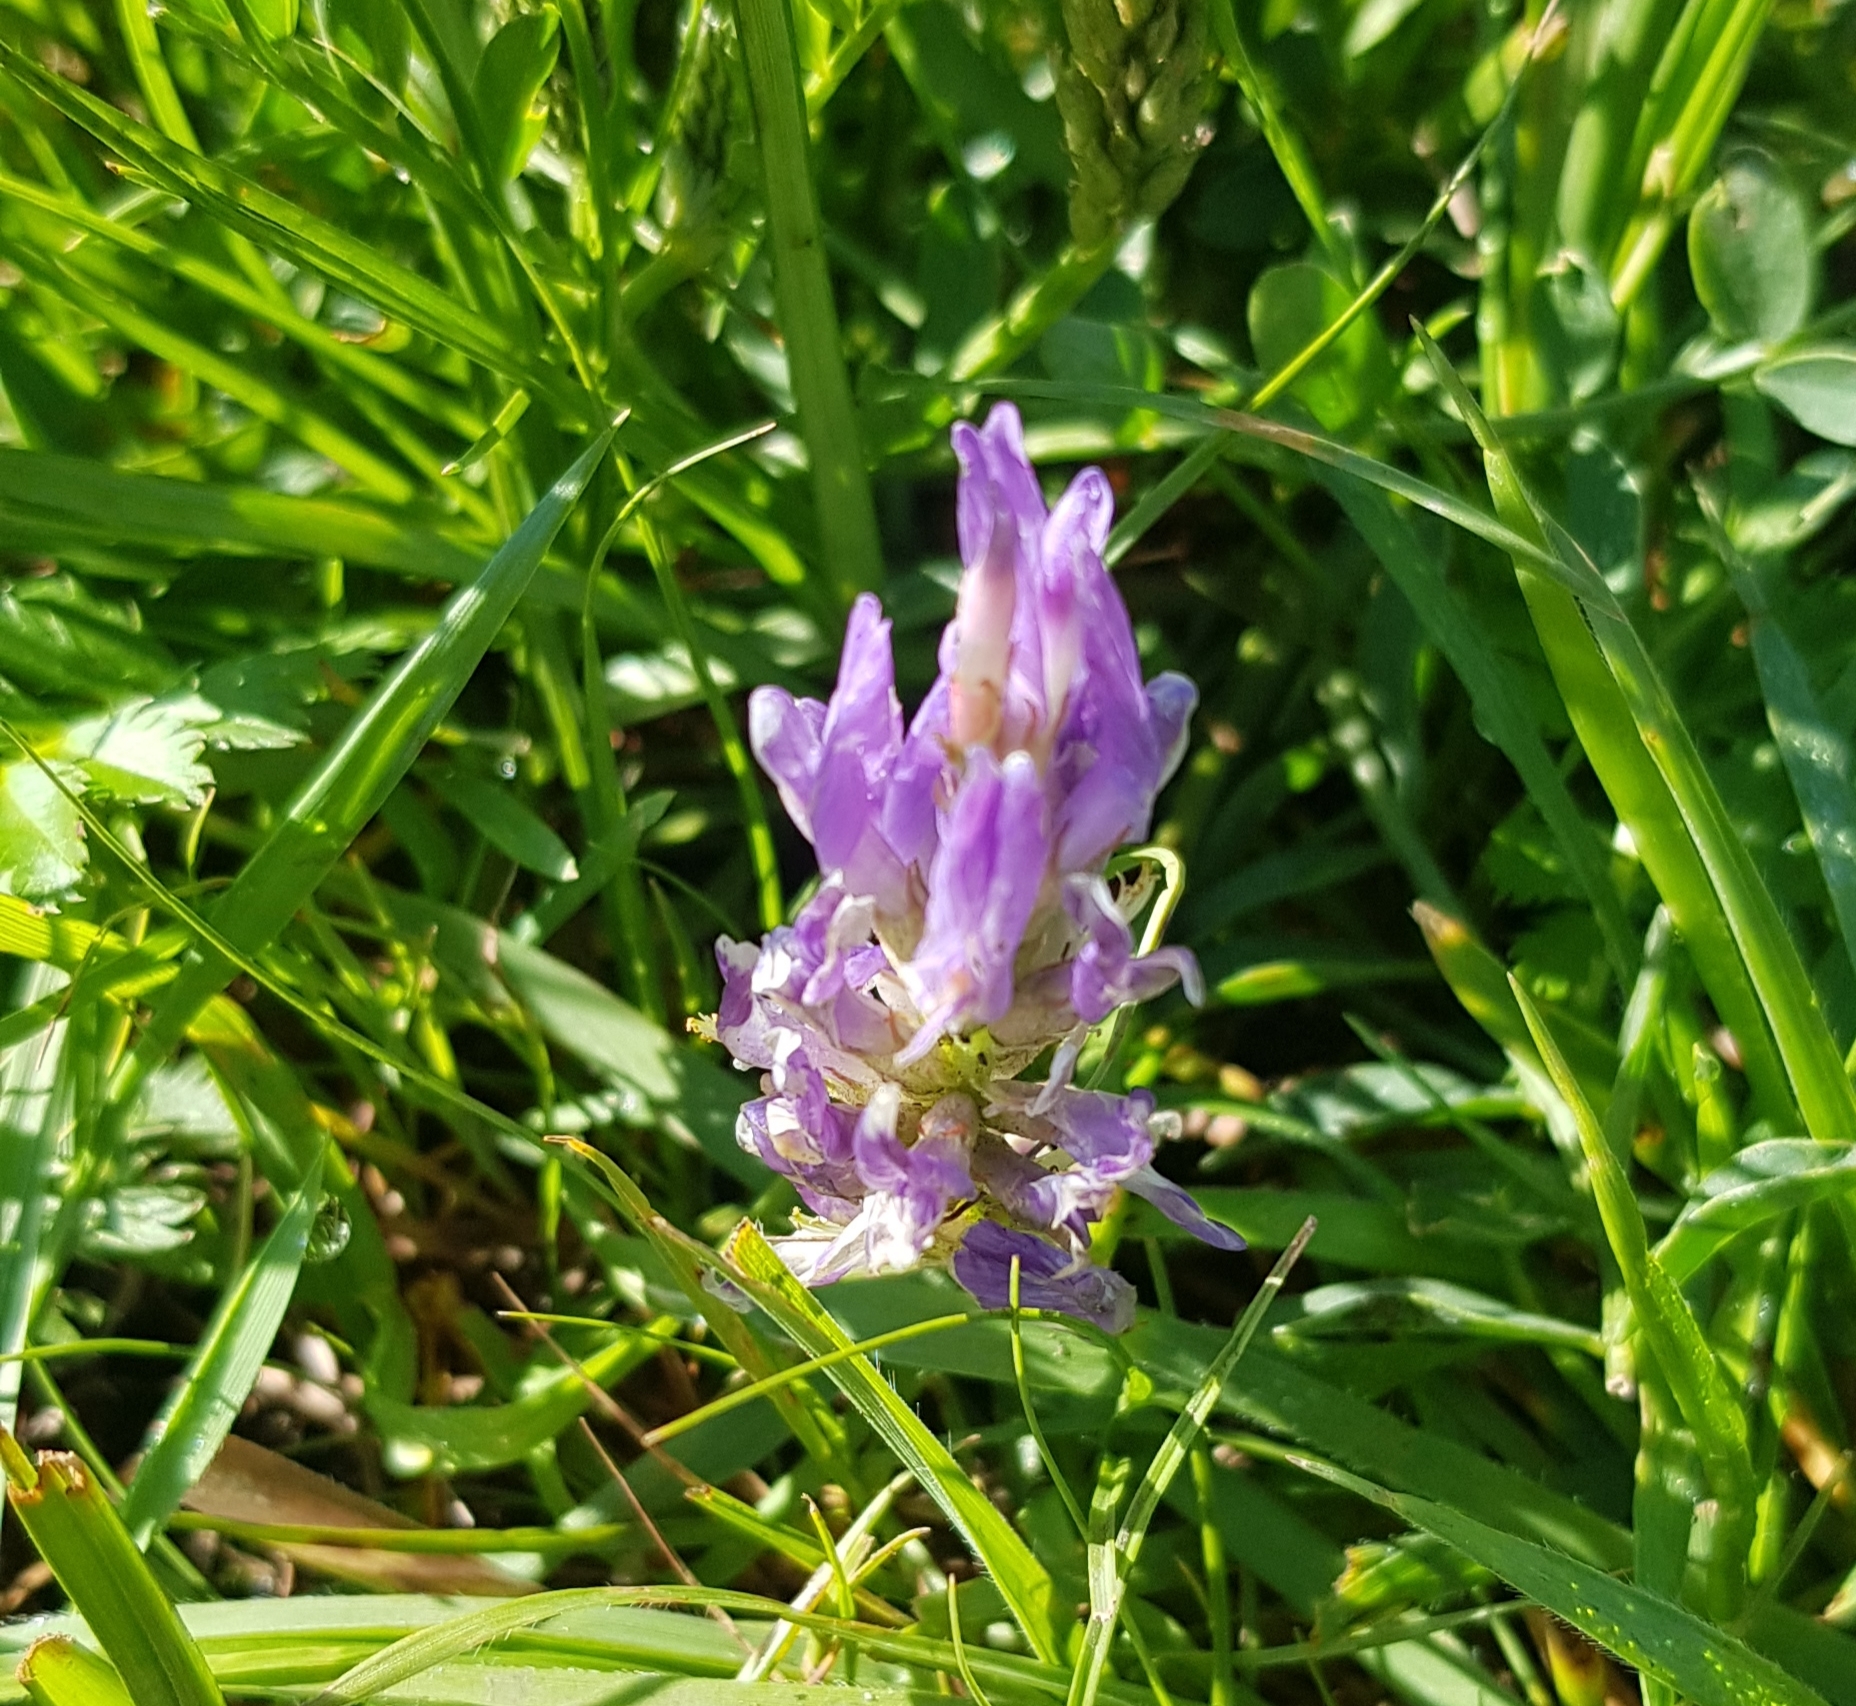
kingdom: Plantae
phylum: Tracheophyta
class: Magnoliopsida
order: Fabales
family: Fabaceae
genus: Astragalus
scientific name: Astragalus laxmannii
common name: Laxmann's milk-vetch
